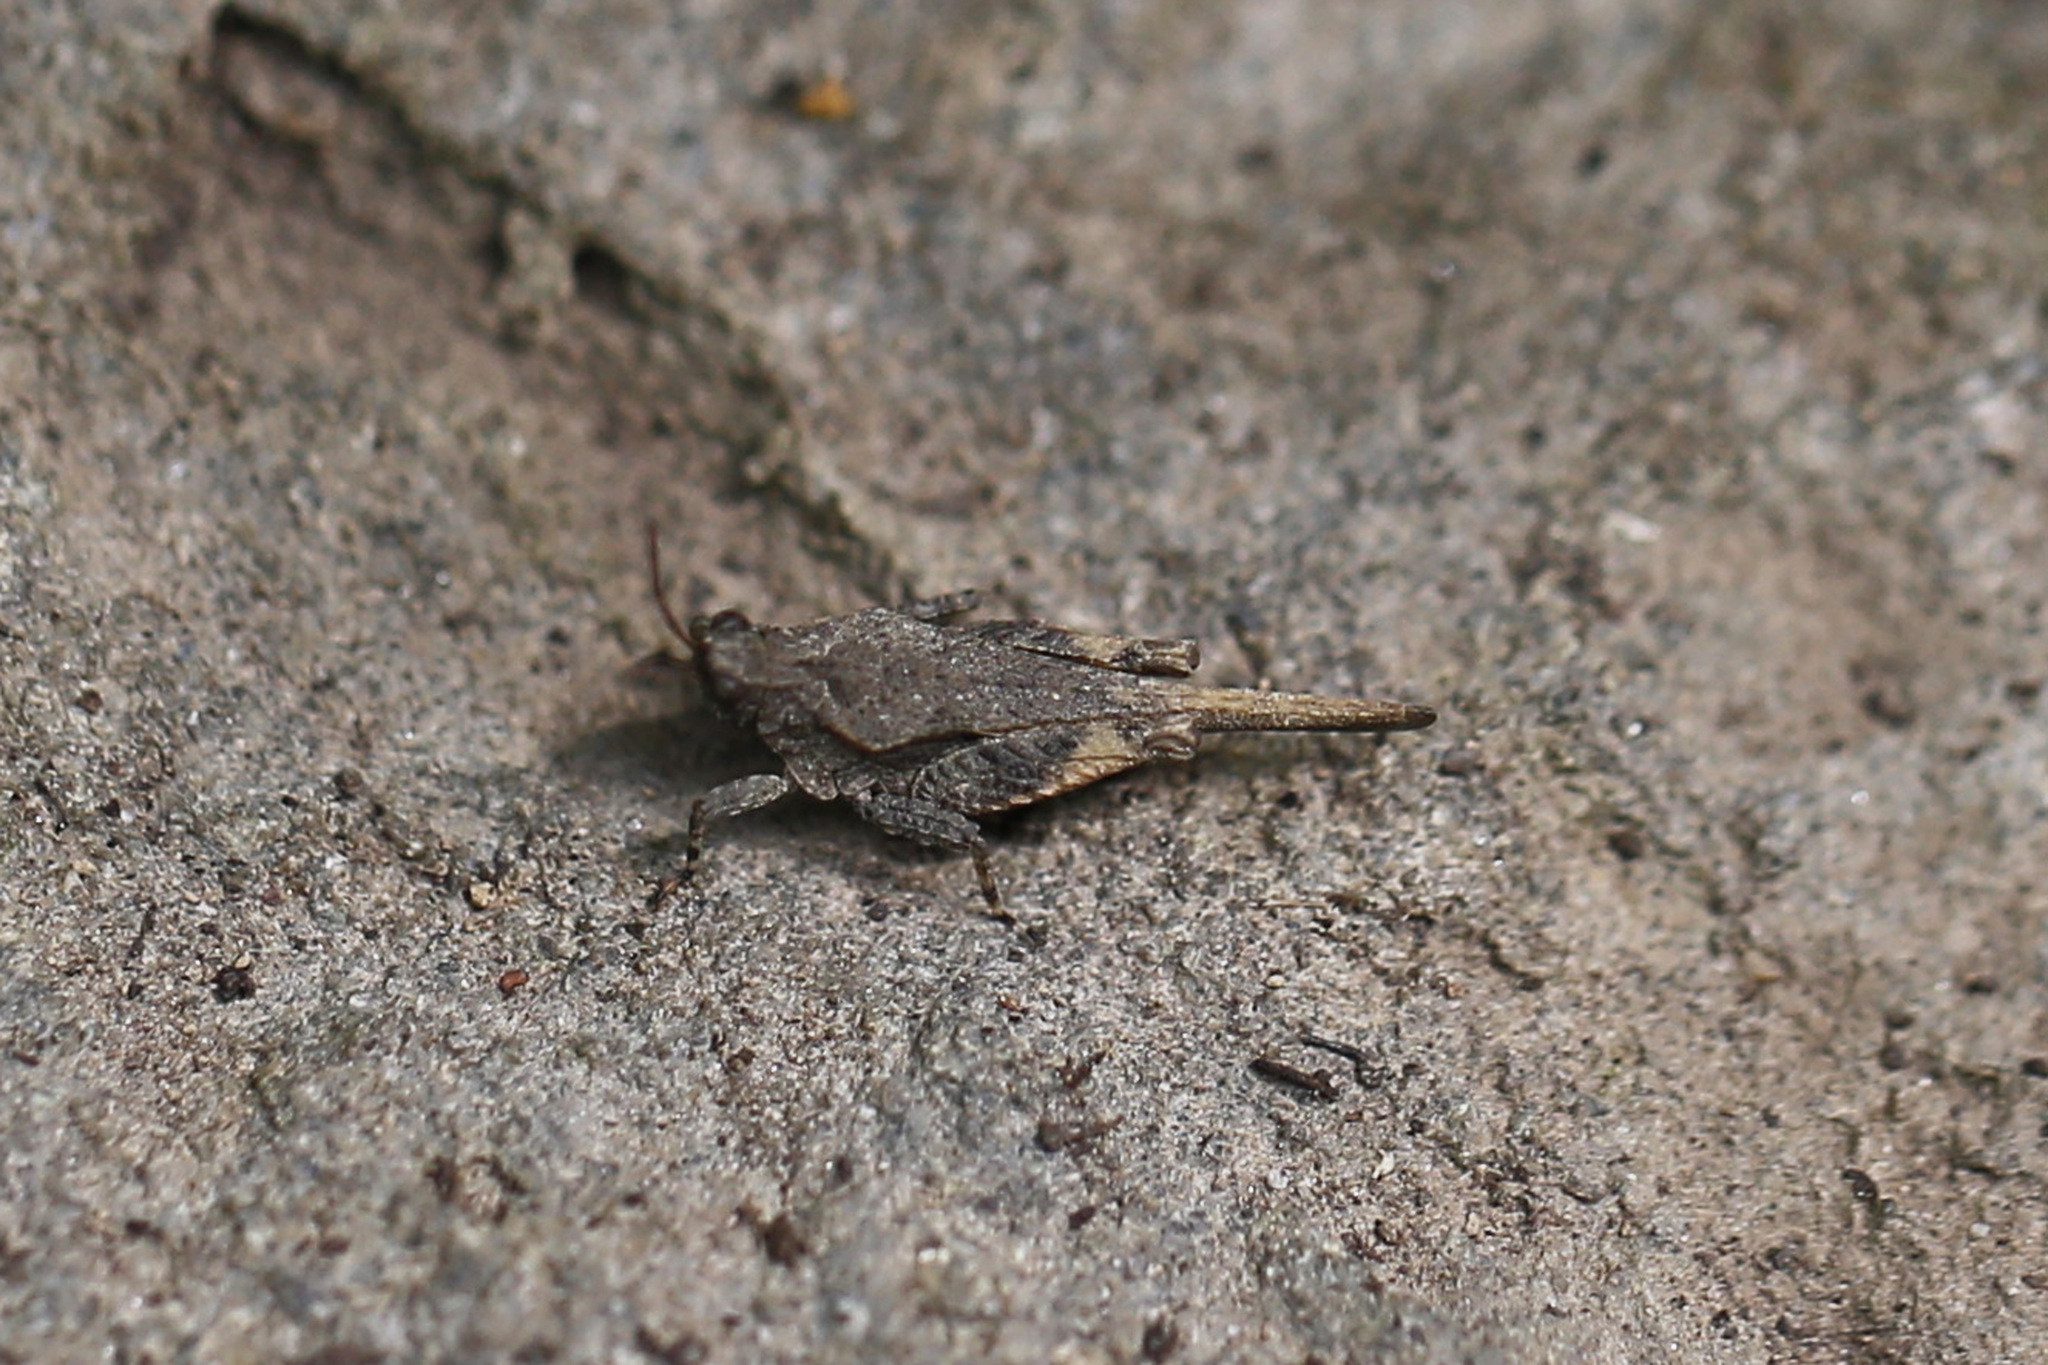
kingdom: Animalia
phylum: Arthropoda
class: Insecta
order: Orthoptera
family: Tetrigidae
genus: Tetrix
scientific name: Tetrix arenosa
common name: Ornate pygmy grasshopper
